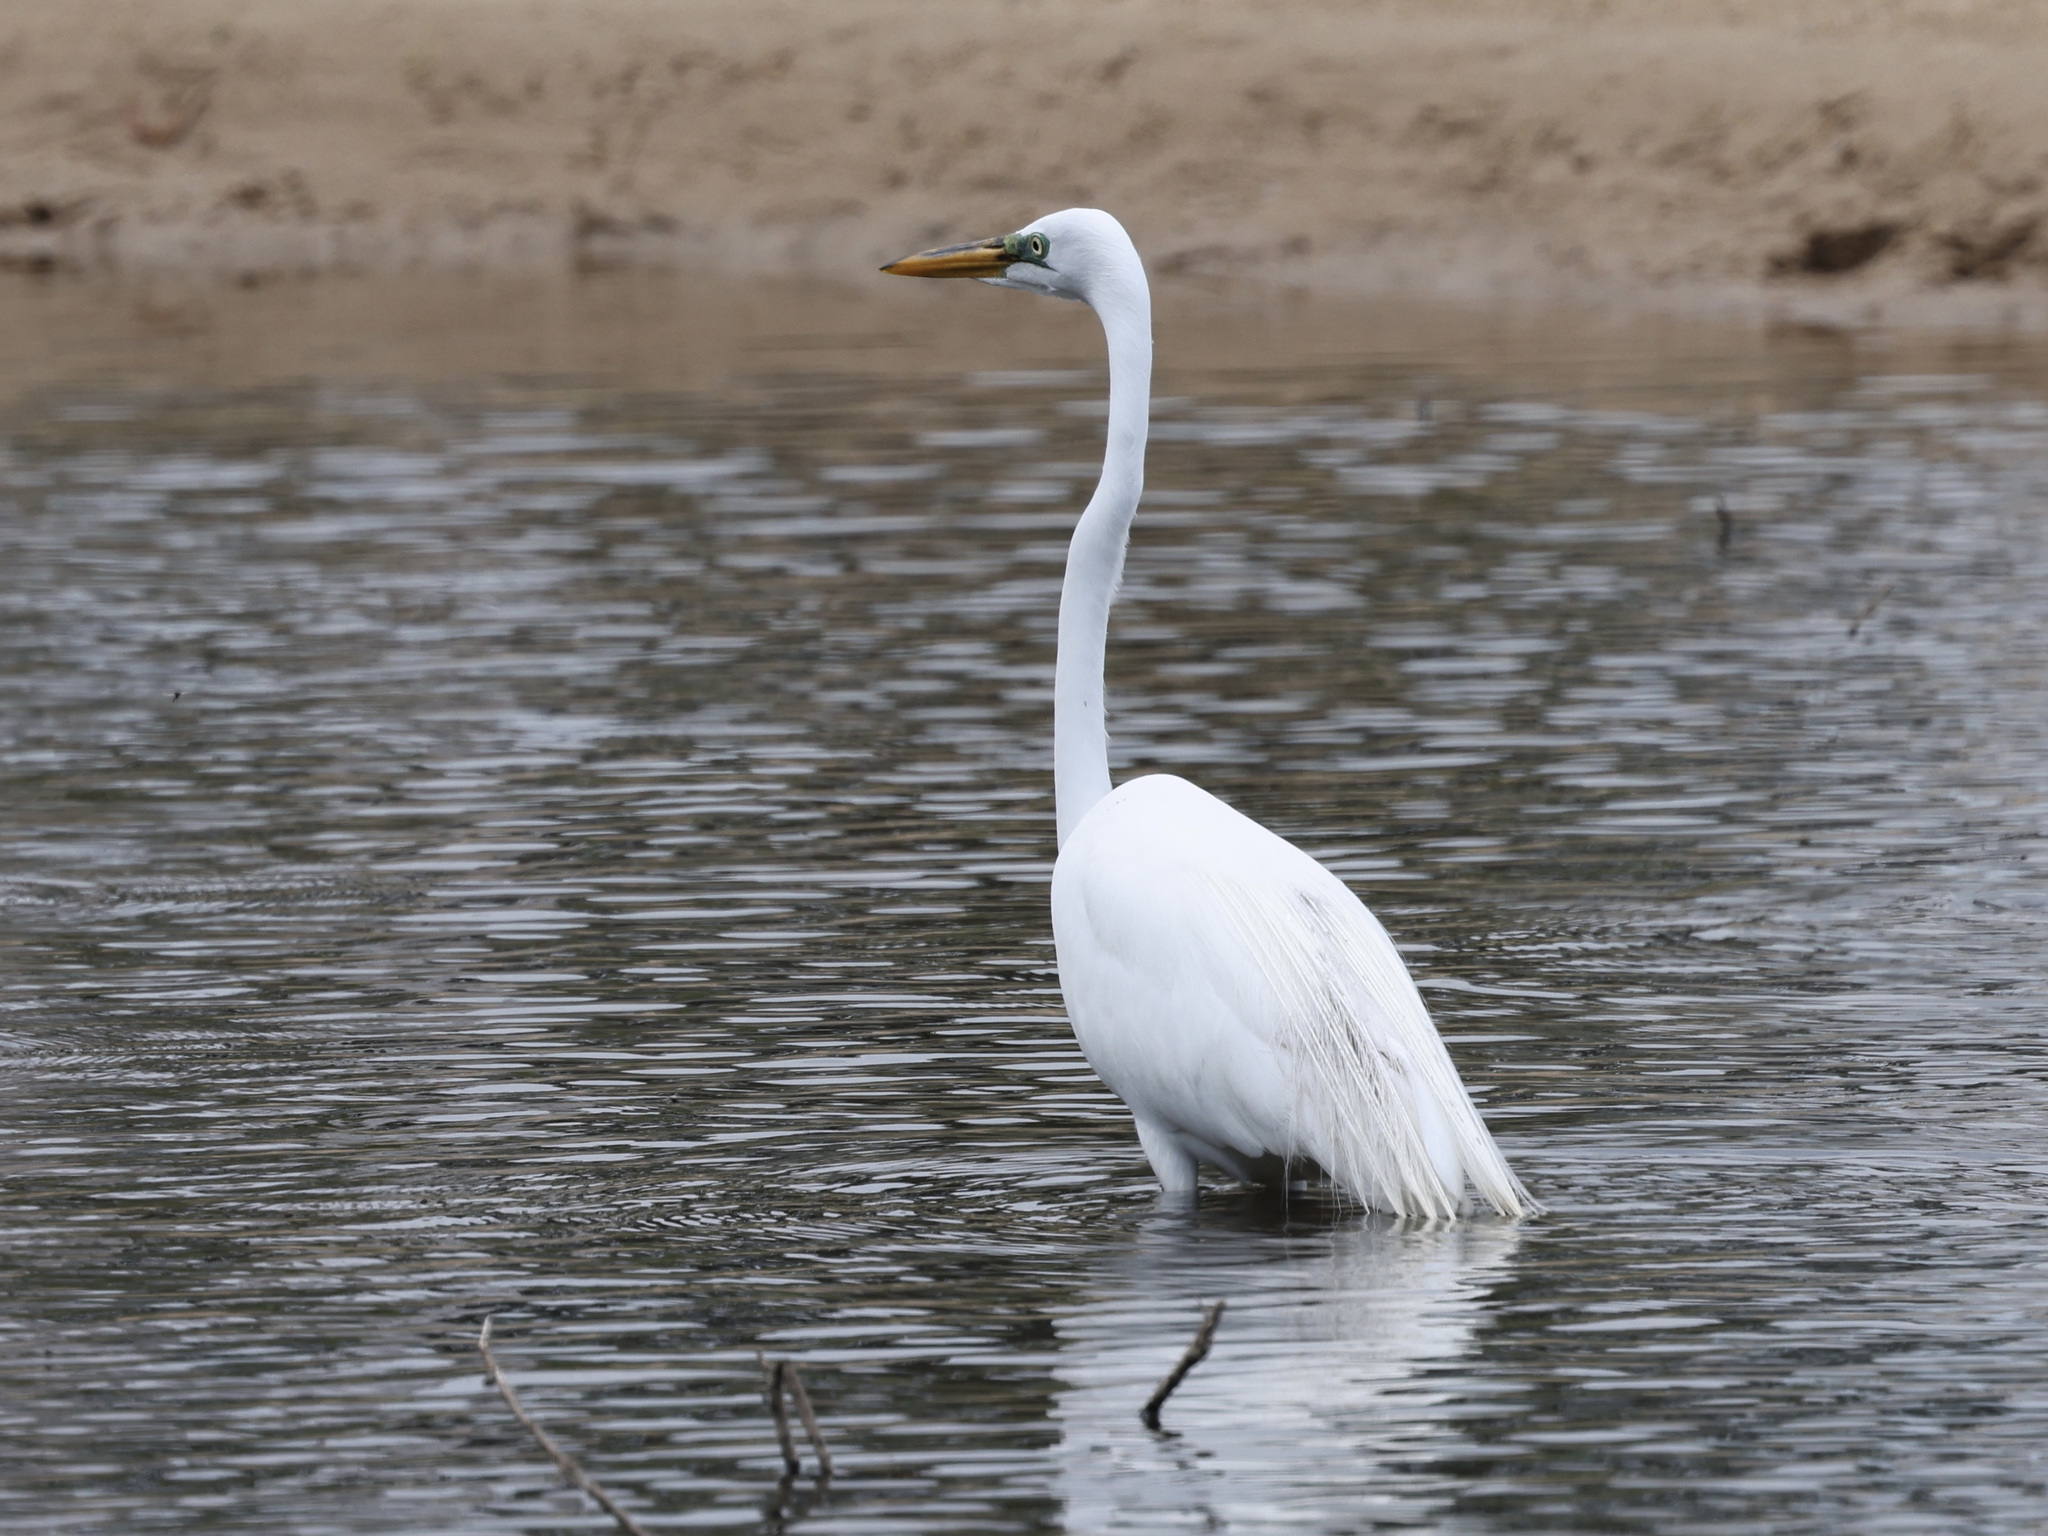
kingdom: Animalia
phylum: Chordata
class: Aves
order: Pelecaniformes
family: Ardeidae
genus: Ardea
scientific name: Ardea alba
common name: Great egret
